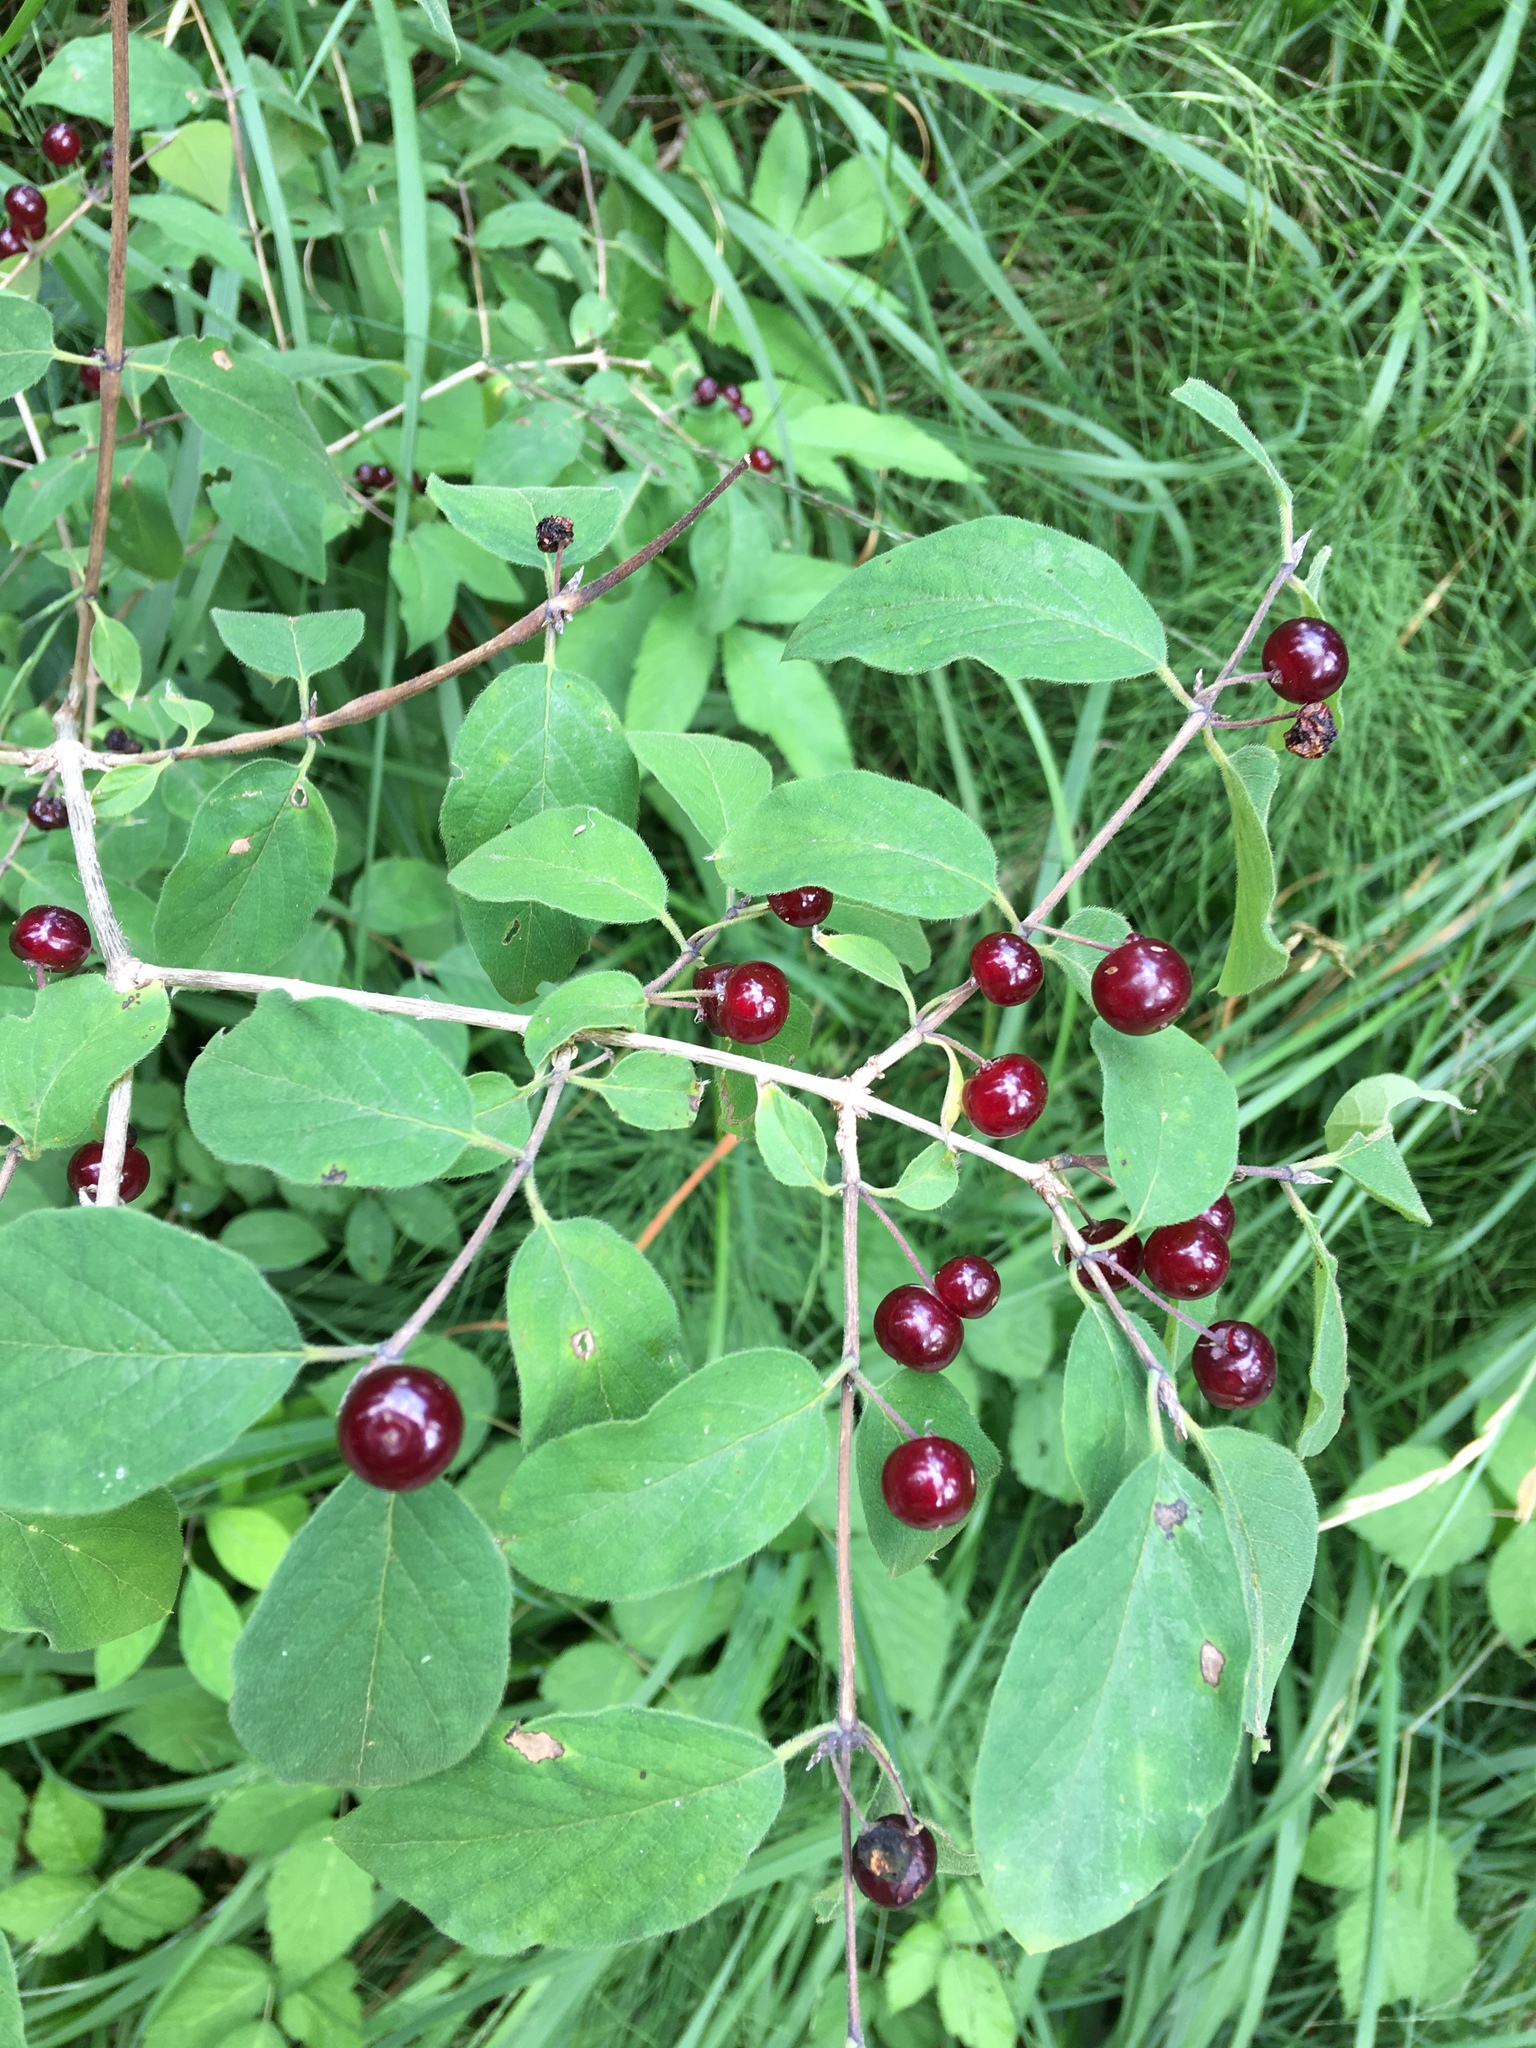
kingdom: Plantae
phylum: Tracheophyta
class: Magnoliopsida
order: Dipsacales
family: Caprifoliaceae
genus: Lonicera
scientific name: Lonicera xylosteum
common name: Fly honeysuckle
